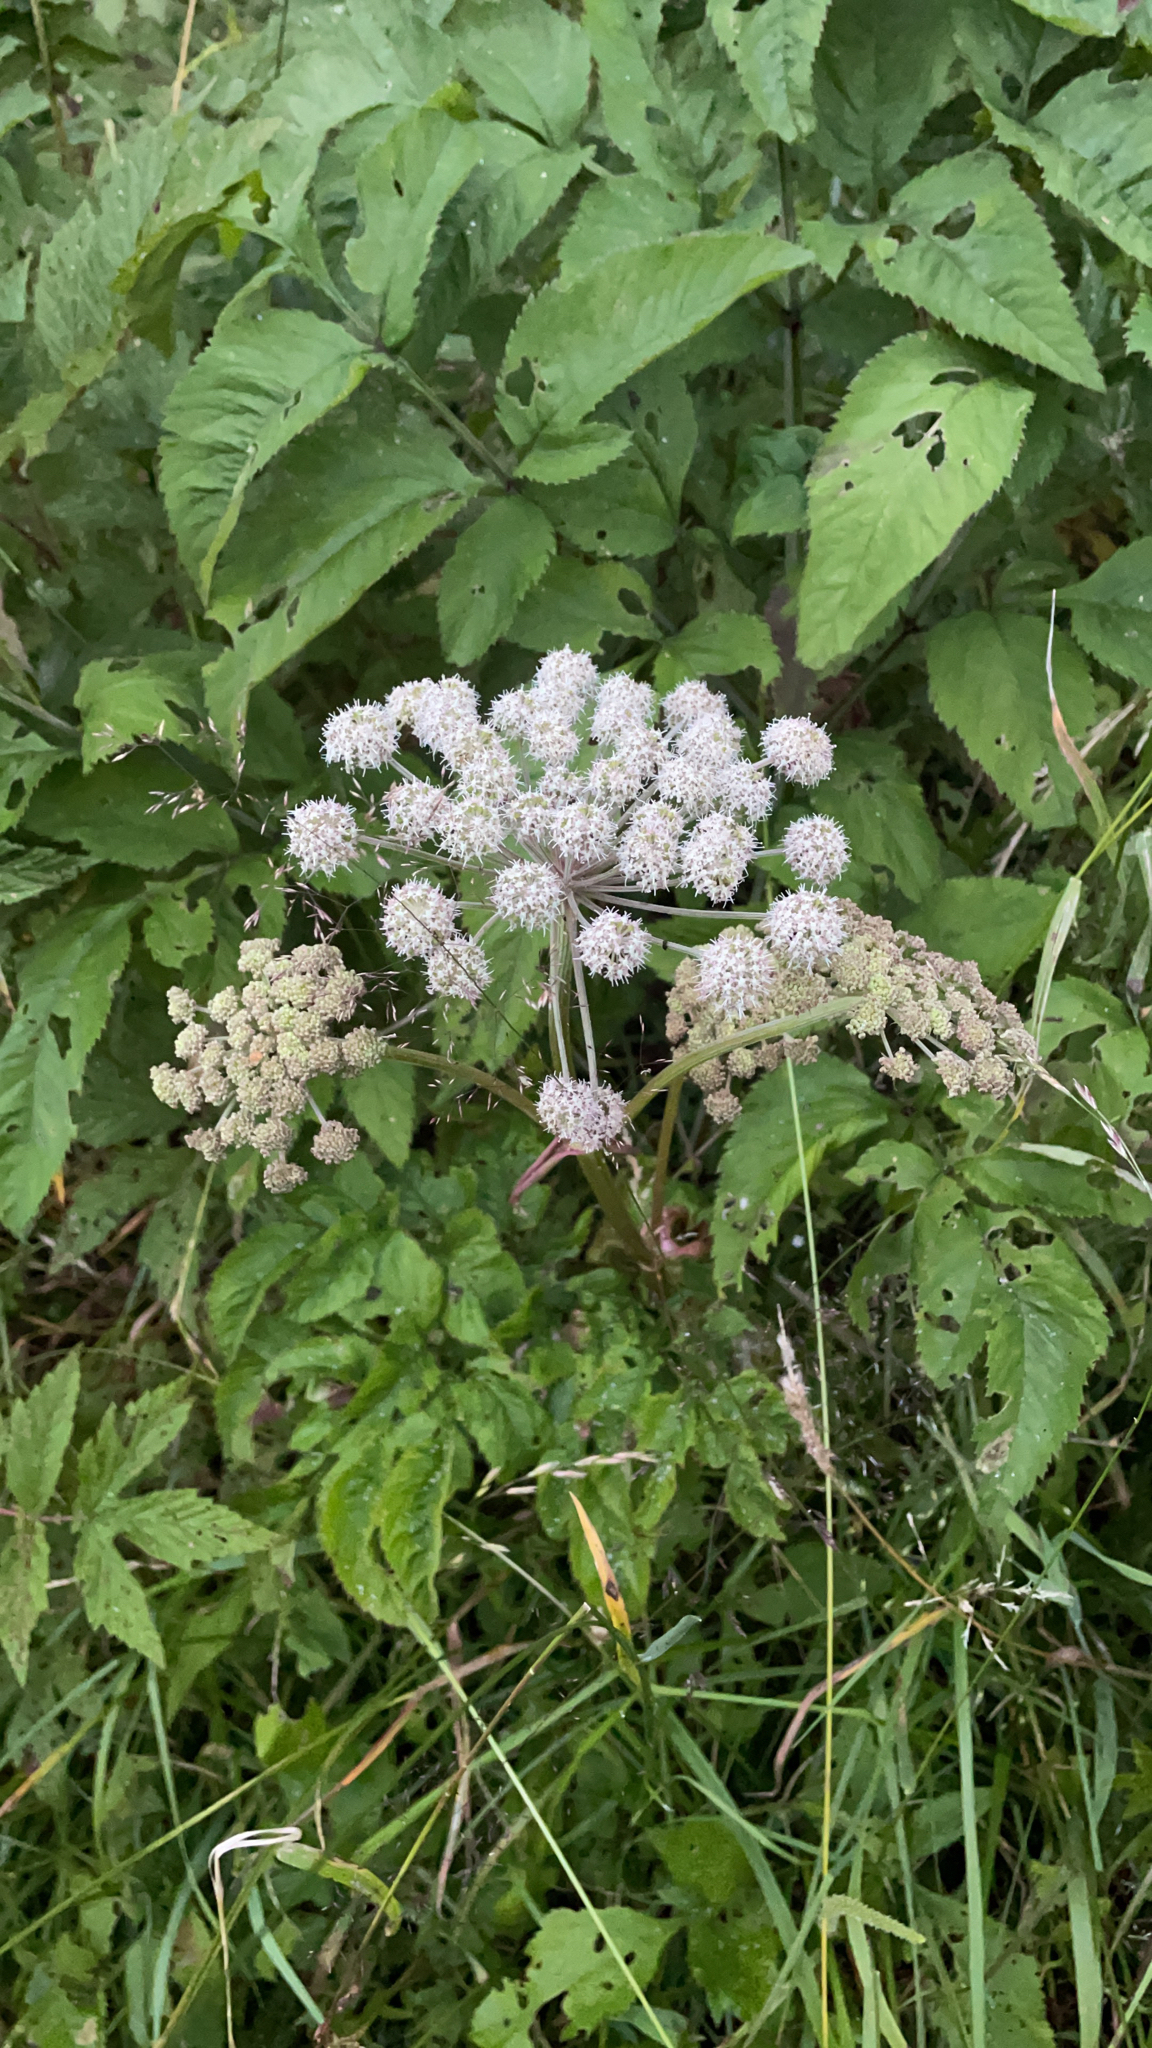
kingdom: Plantae
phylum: Tracheophyta
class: Magnoliopsida
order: Apiales
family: Apiaceae
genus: Angelica
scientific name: Angelica sylvestris
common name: Wild angelica
